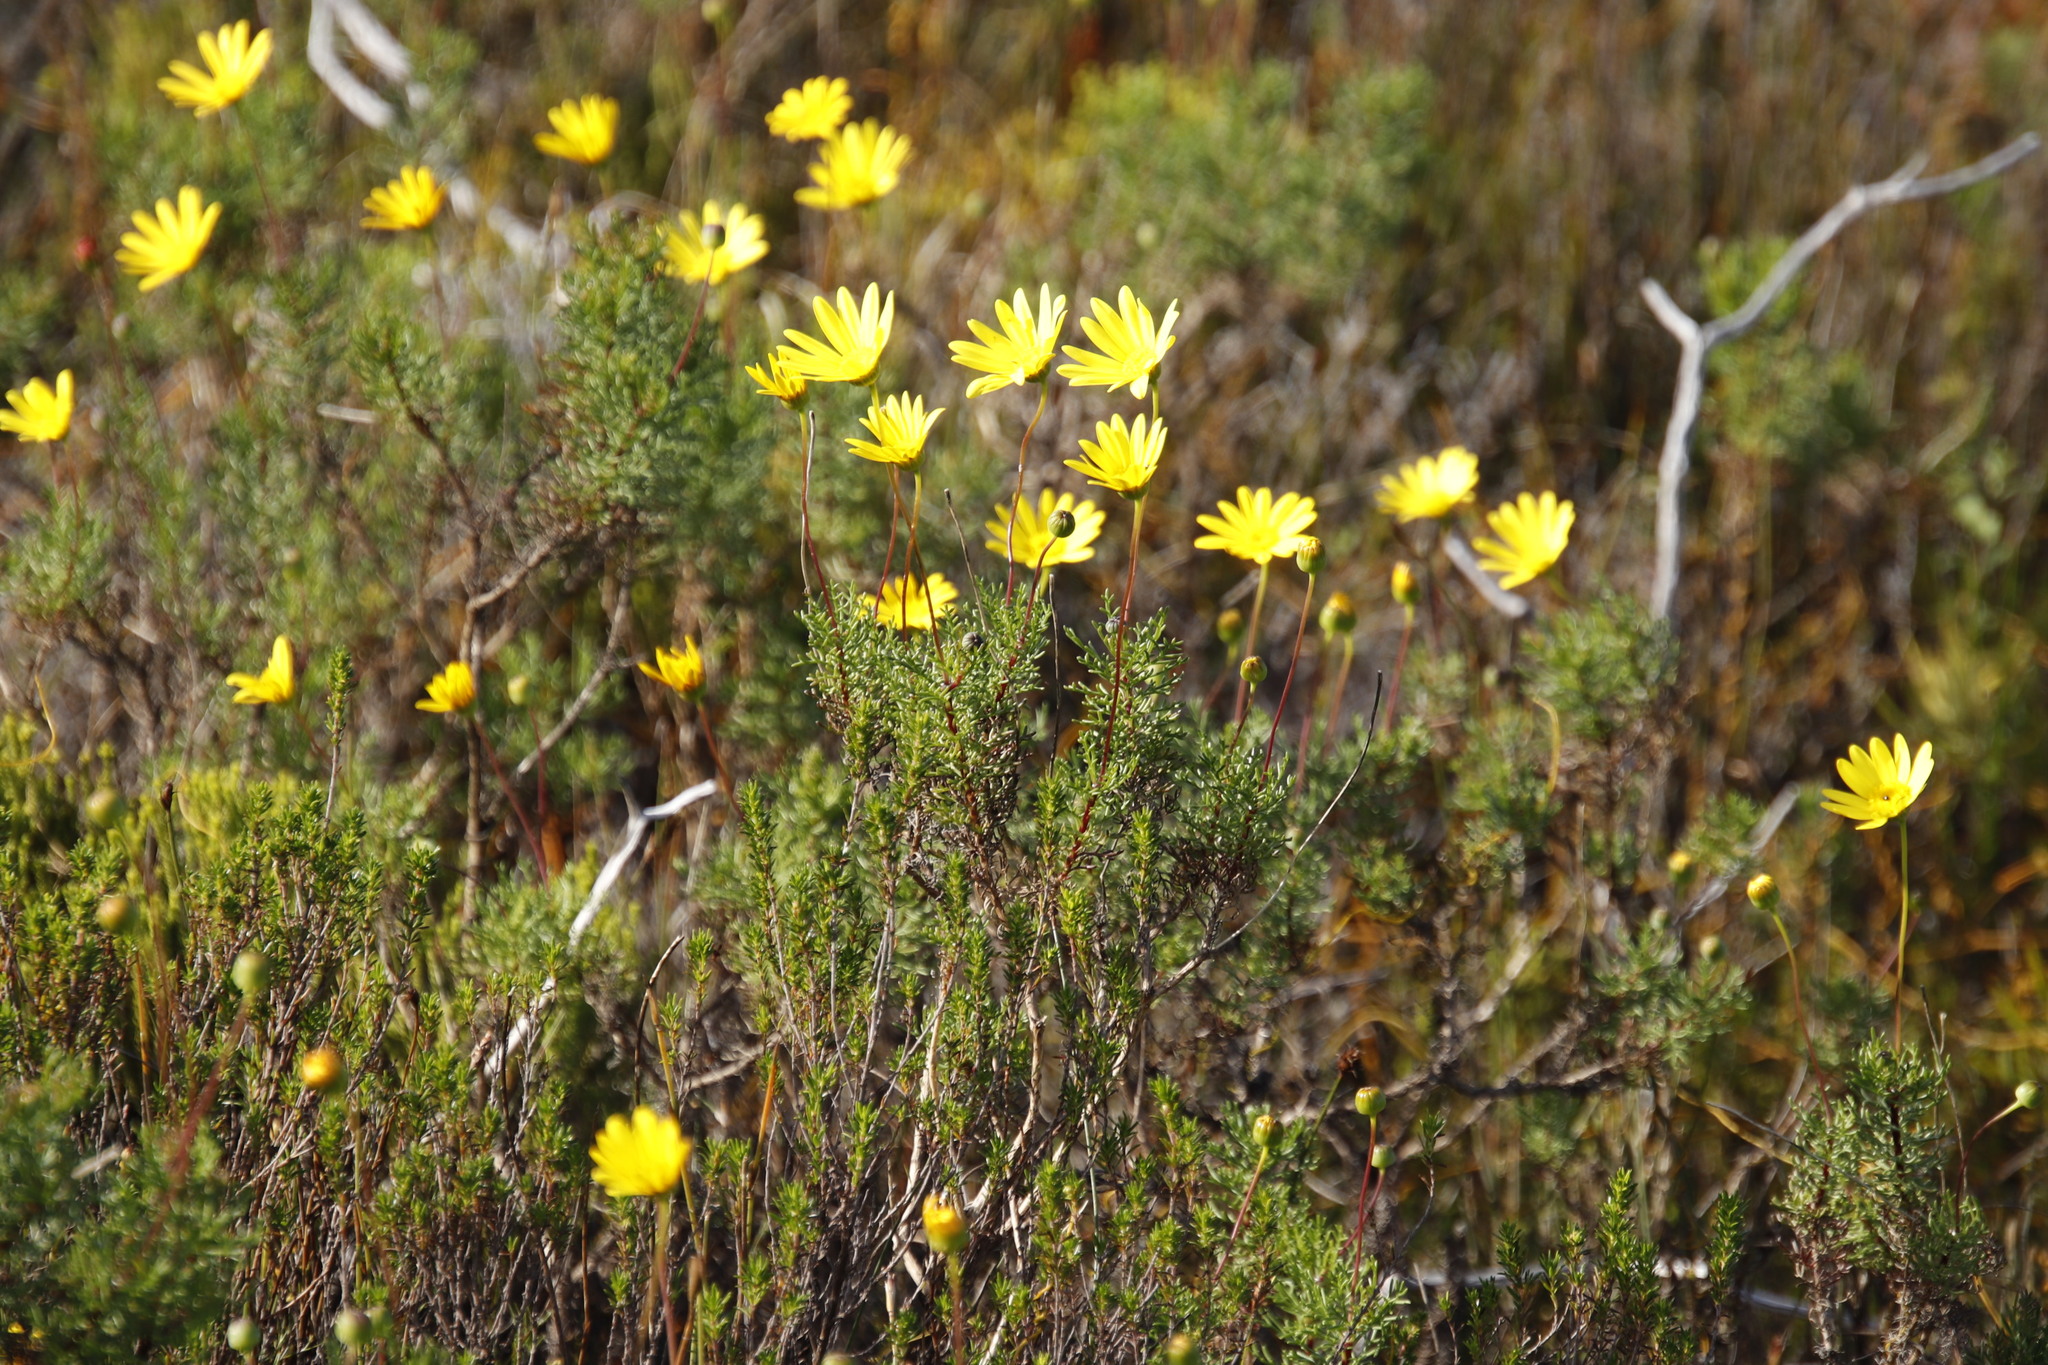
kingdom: Plantae
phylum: Tracheophyta
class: Magnoliopsida
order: Asterales
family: Asteraceae
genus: Euryops
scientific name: Euryops abrotanifolius
